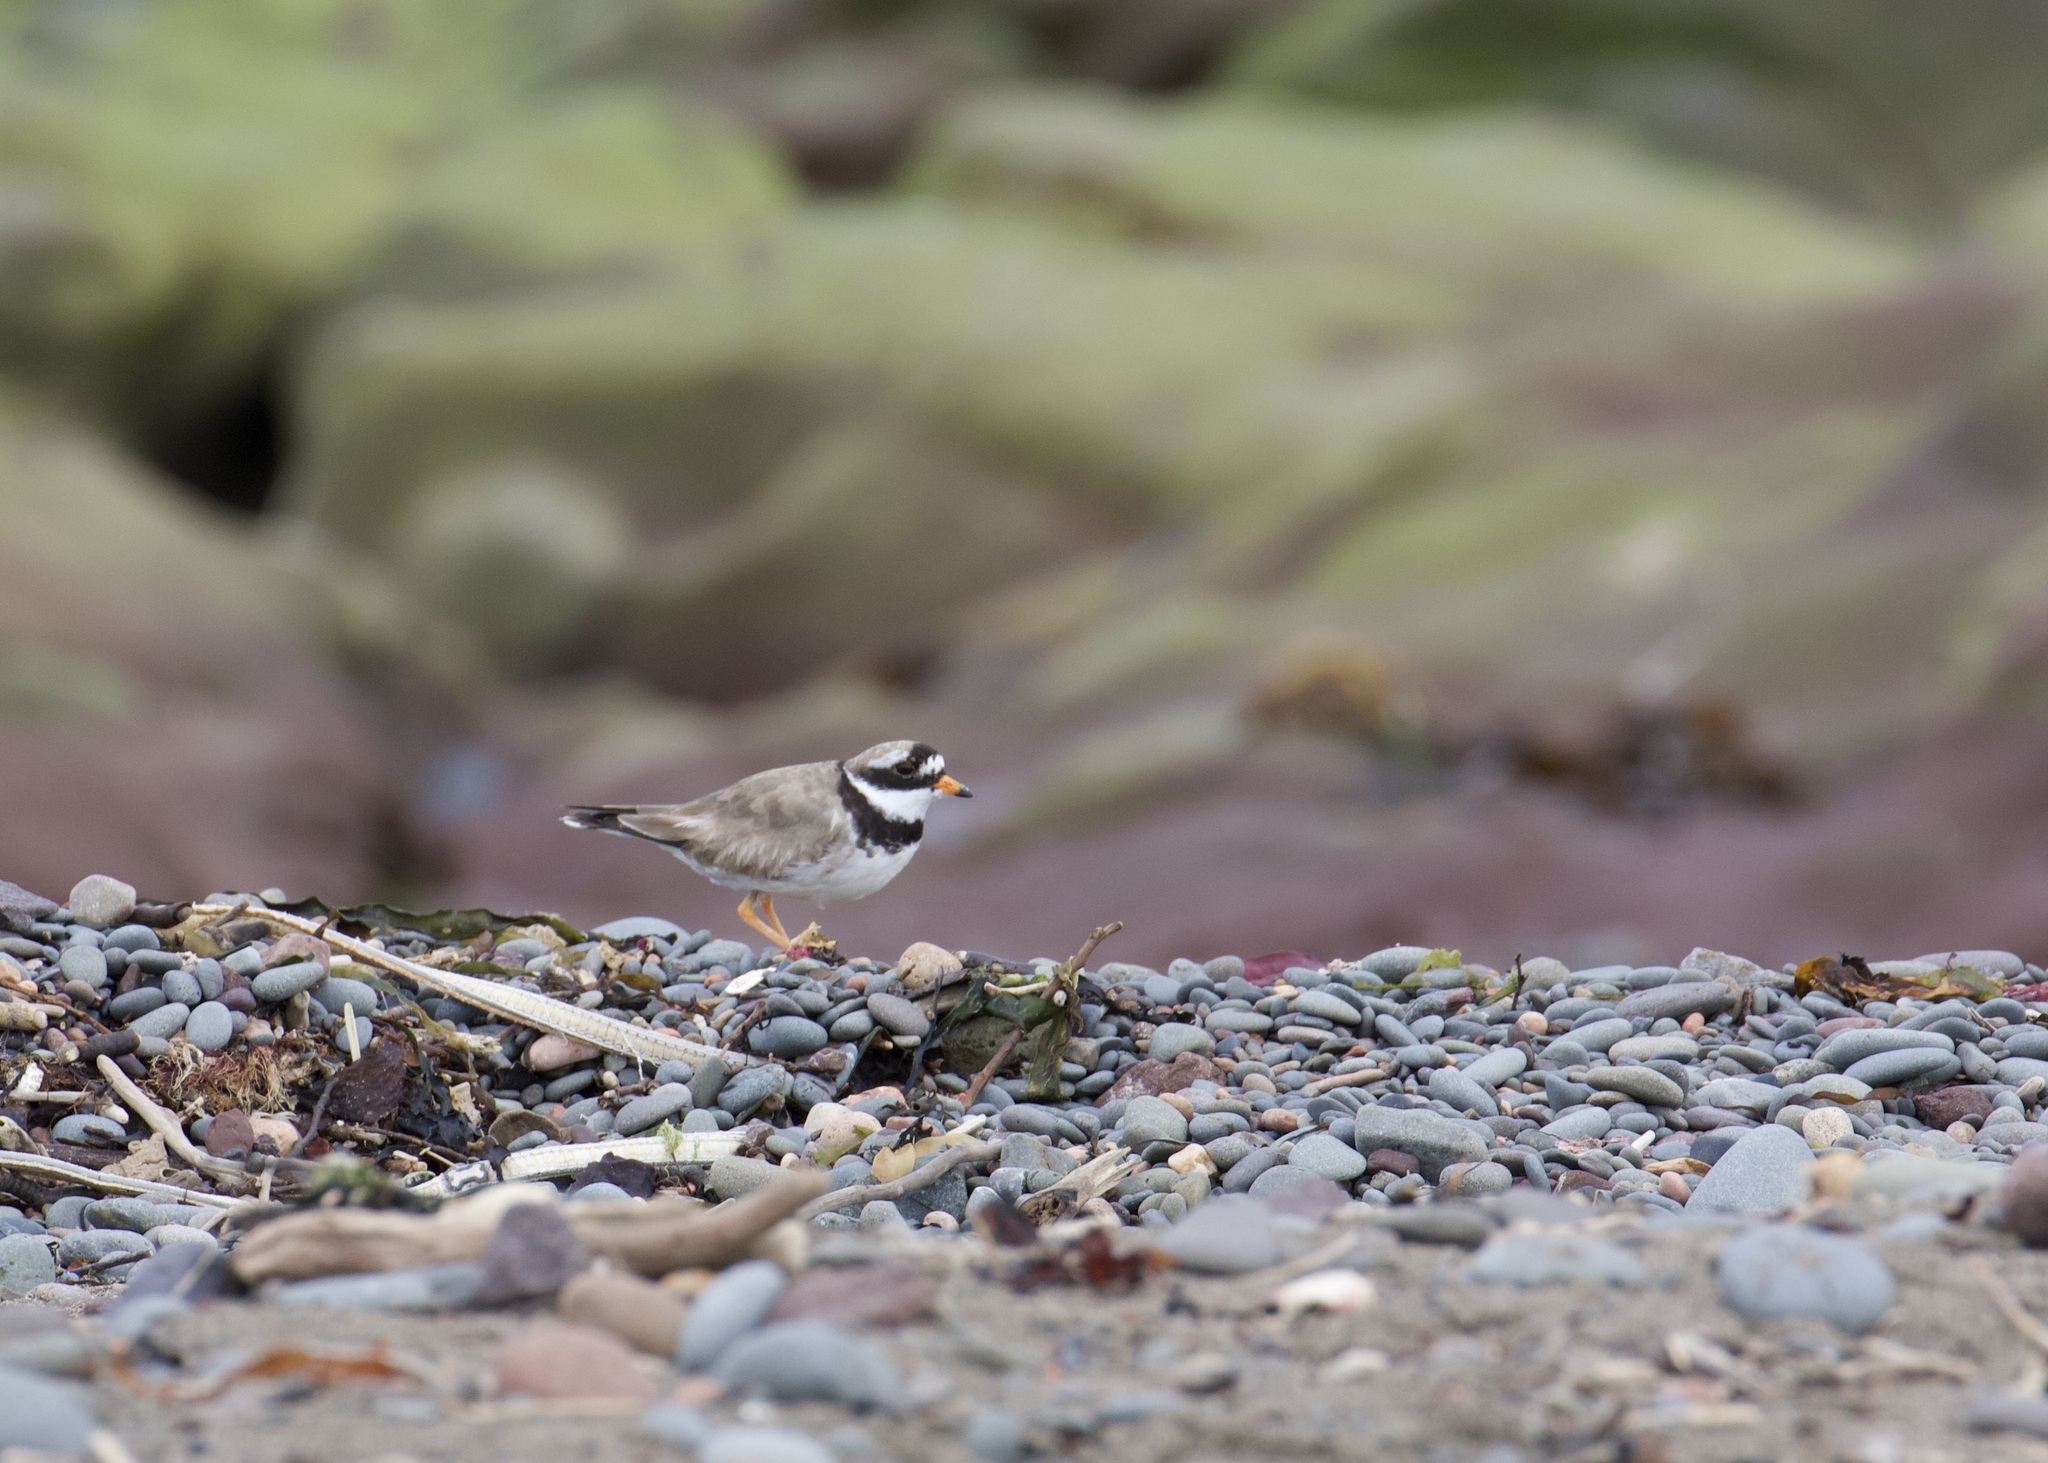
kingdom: Animalia
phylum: Chordata
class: Aves
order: Charadriiformes
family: Charadriidae
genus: Charadrius
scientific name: Charadrius hiaticula
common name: Common ringed plover
